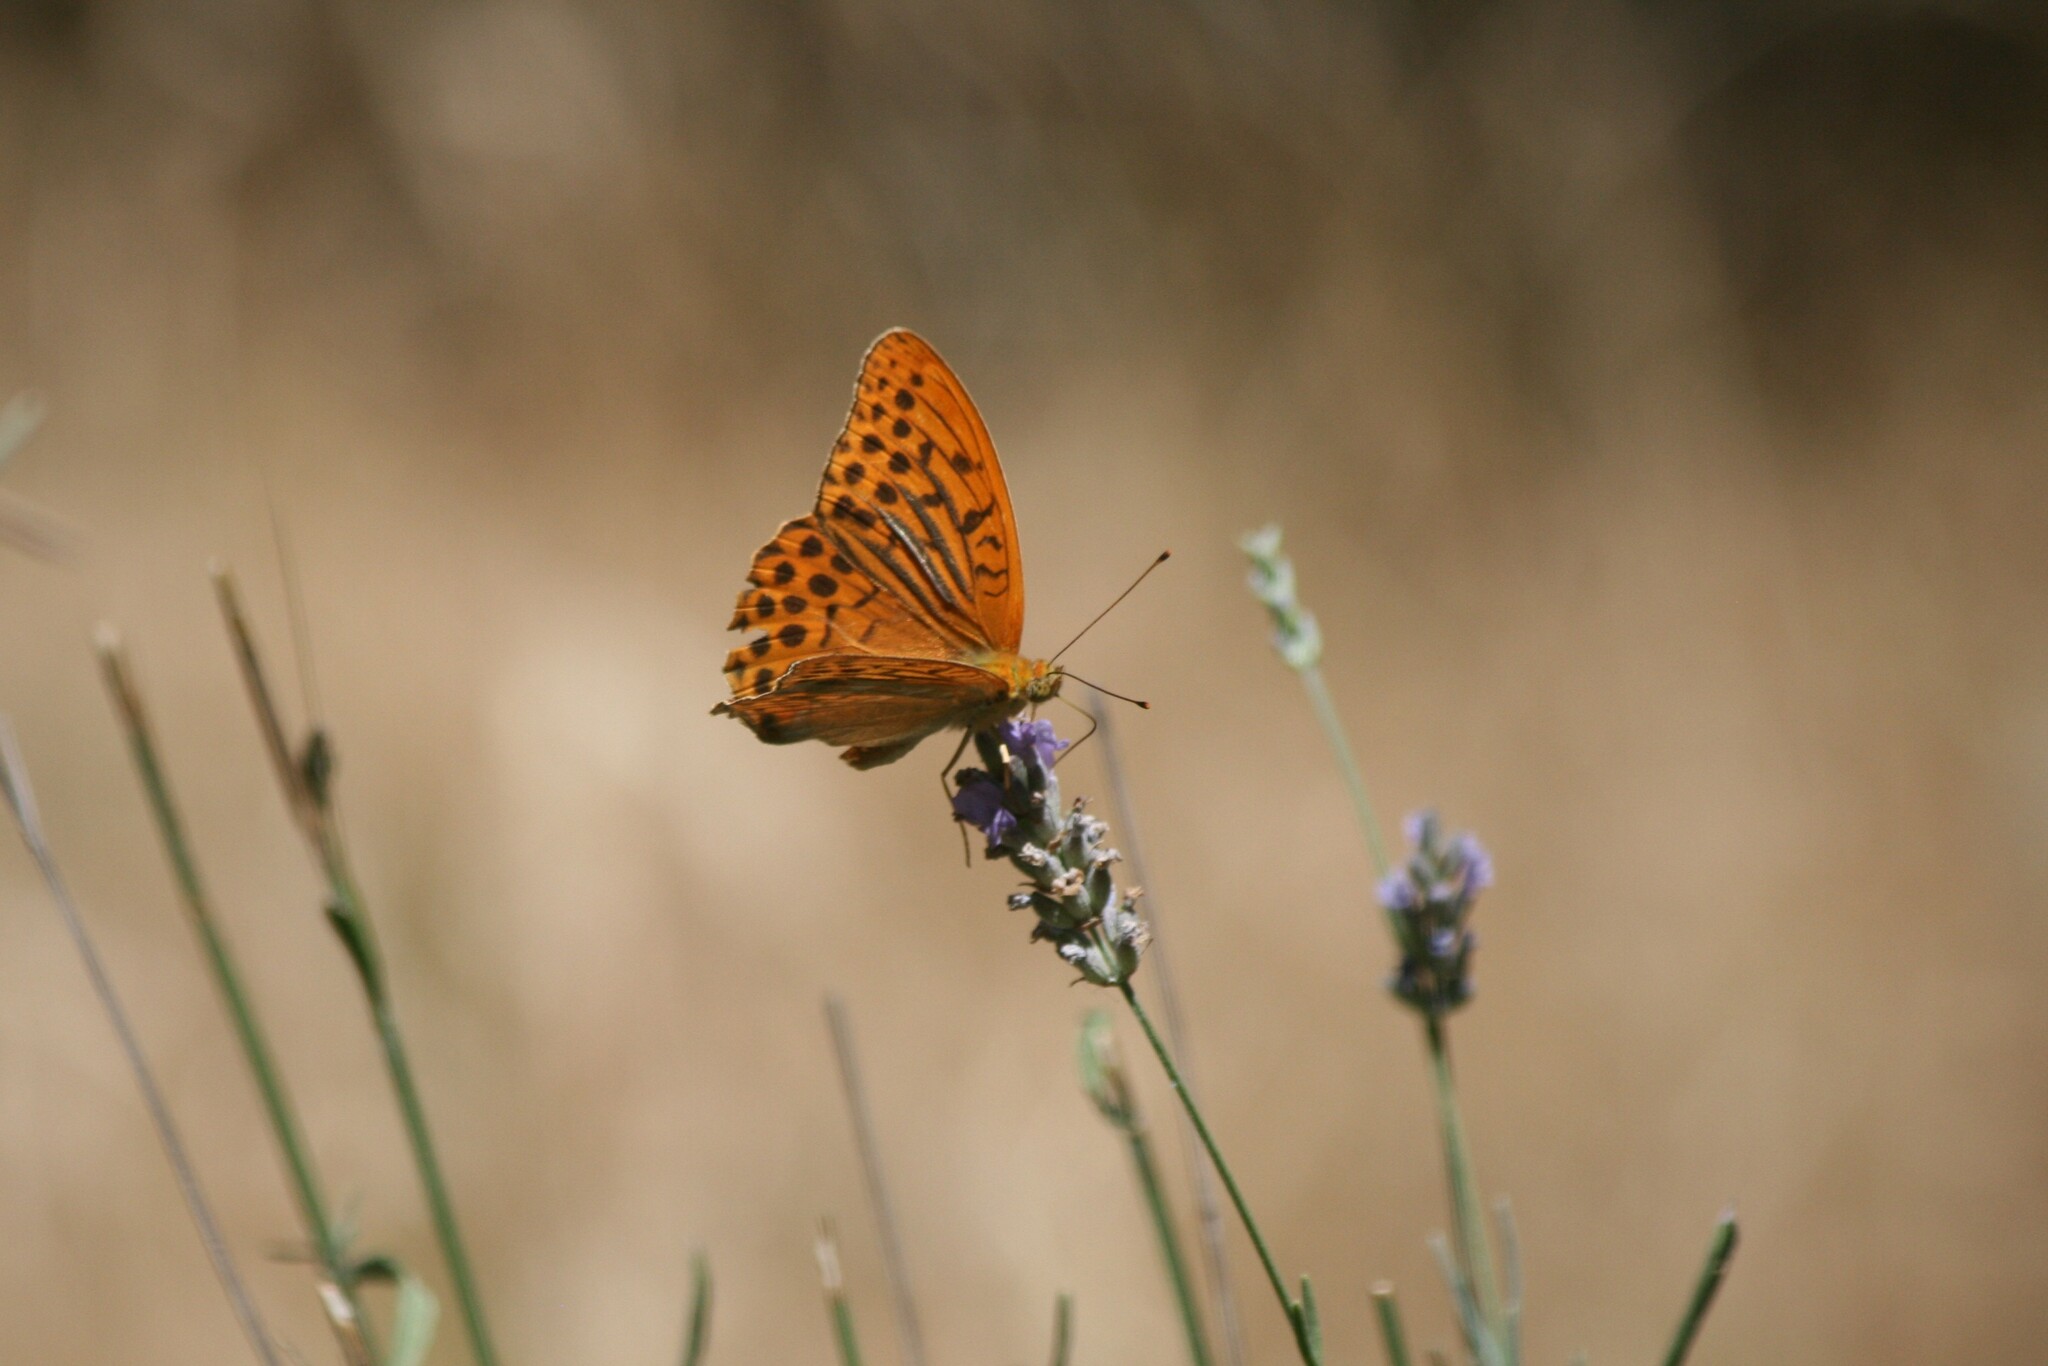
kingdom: Animalia
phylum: Arthropoda
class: Insecta
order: Lepidoptera
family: Nymphalidae
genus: Argynnis
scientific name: Argynnis paphia
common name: Silver-washed fritillary
